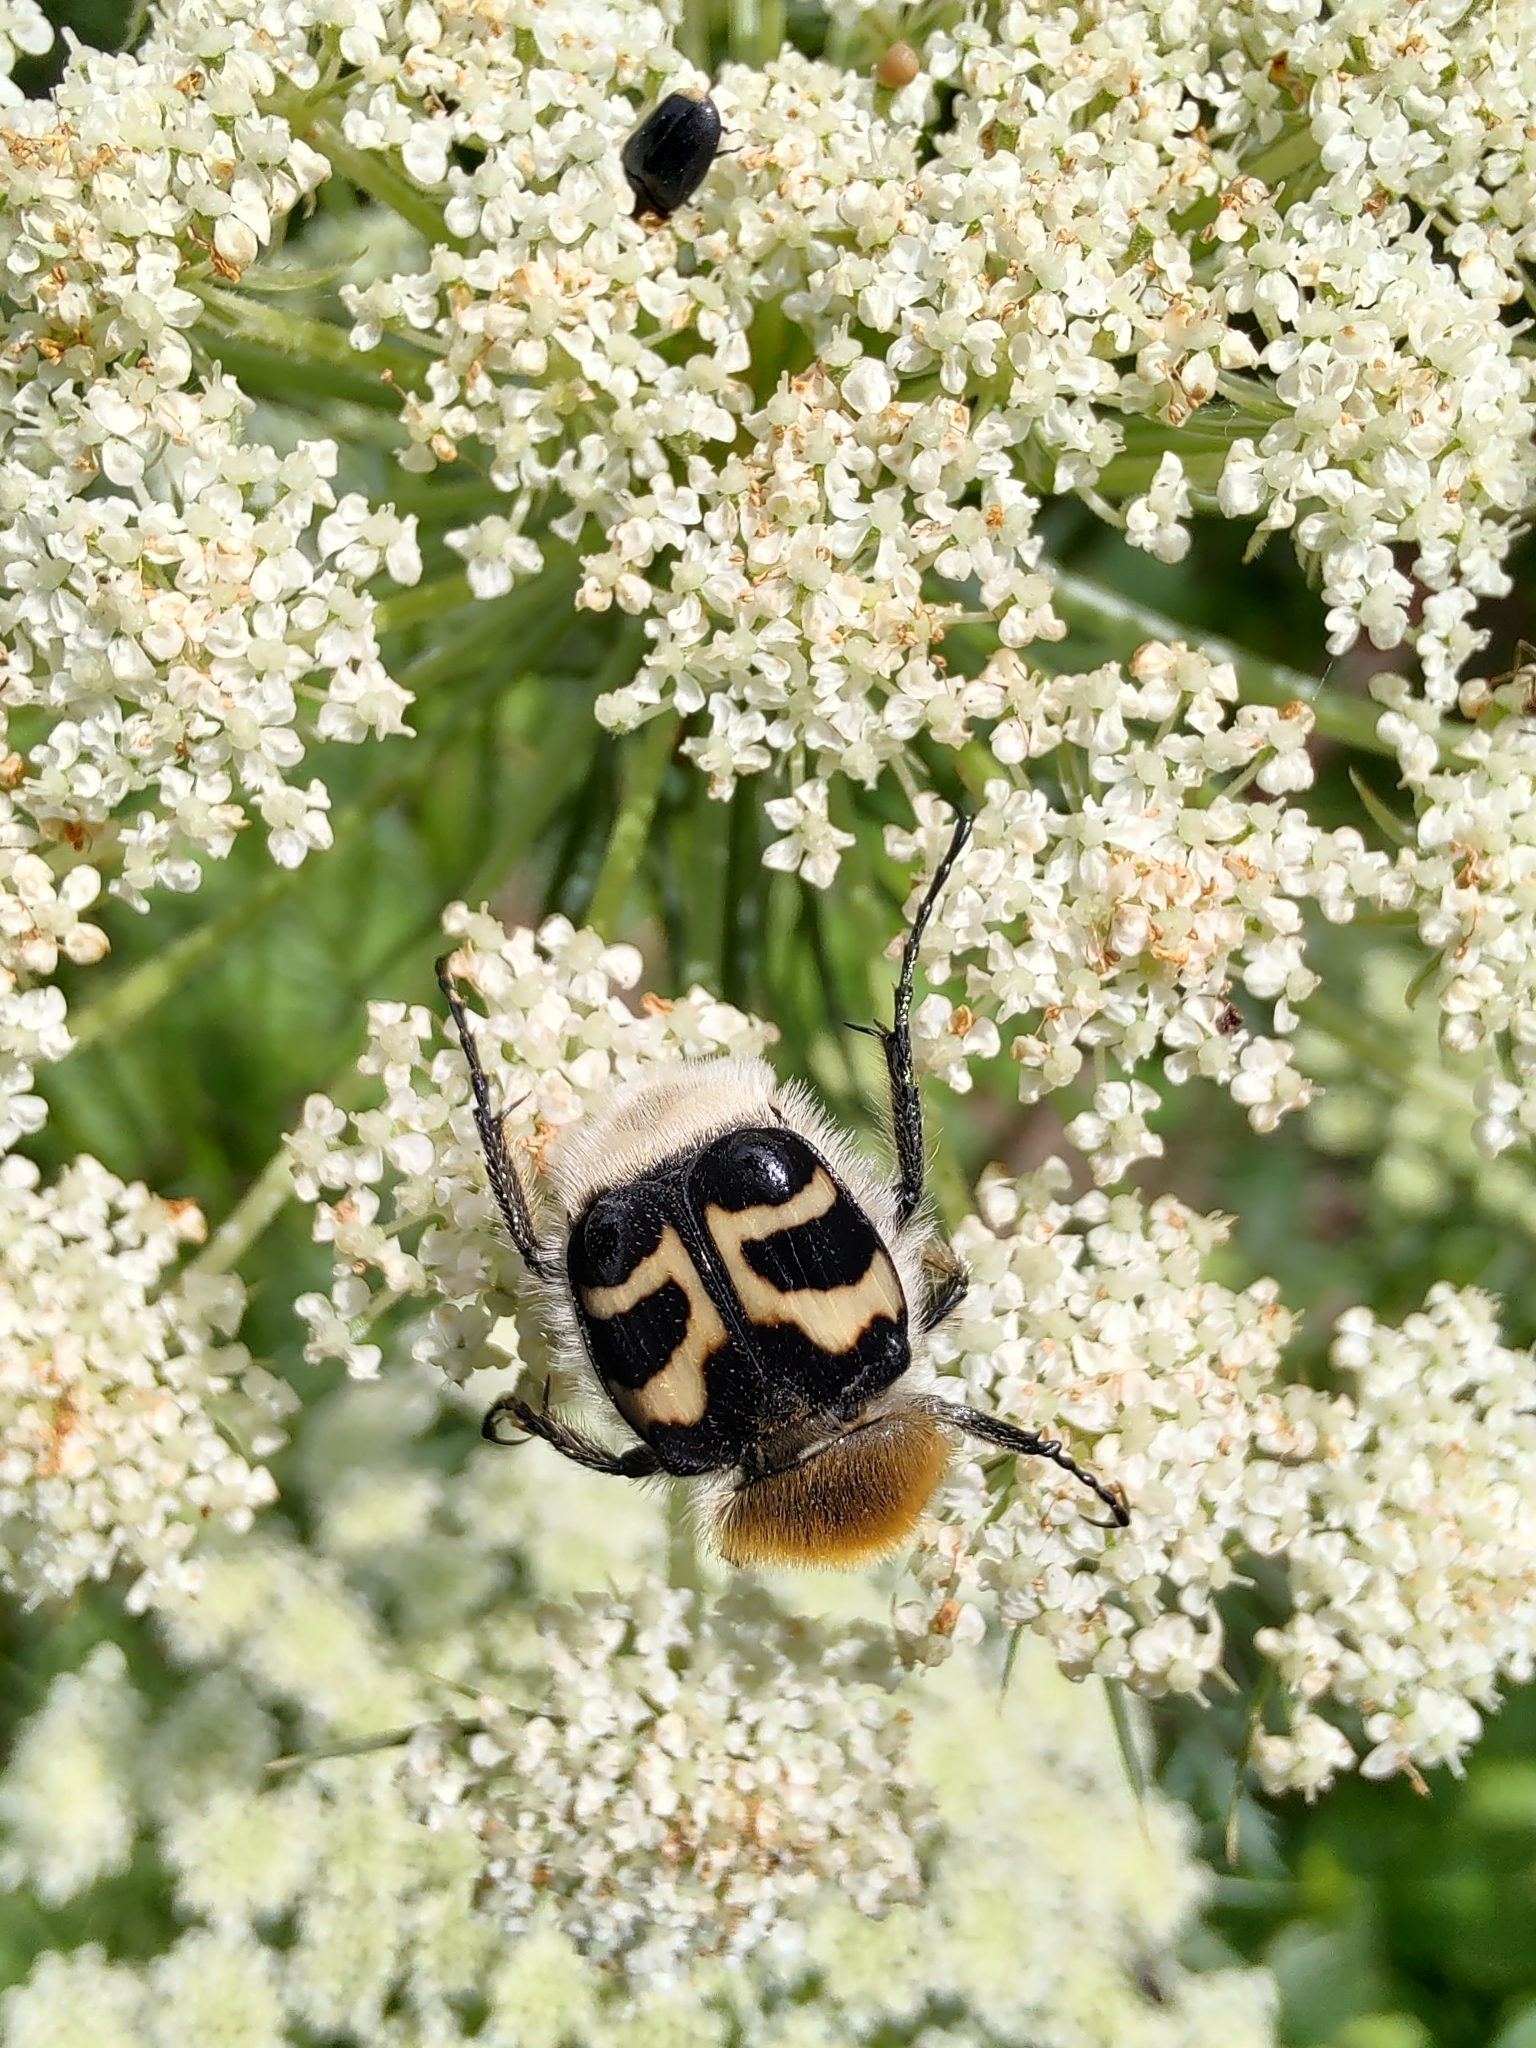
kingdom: Animalia
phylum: Arthropoda
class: Insecta
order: Coleoptera
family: Scarabaeidae
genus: Trichius
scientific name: Trichius fasciatus
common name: Bee beetle
